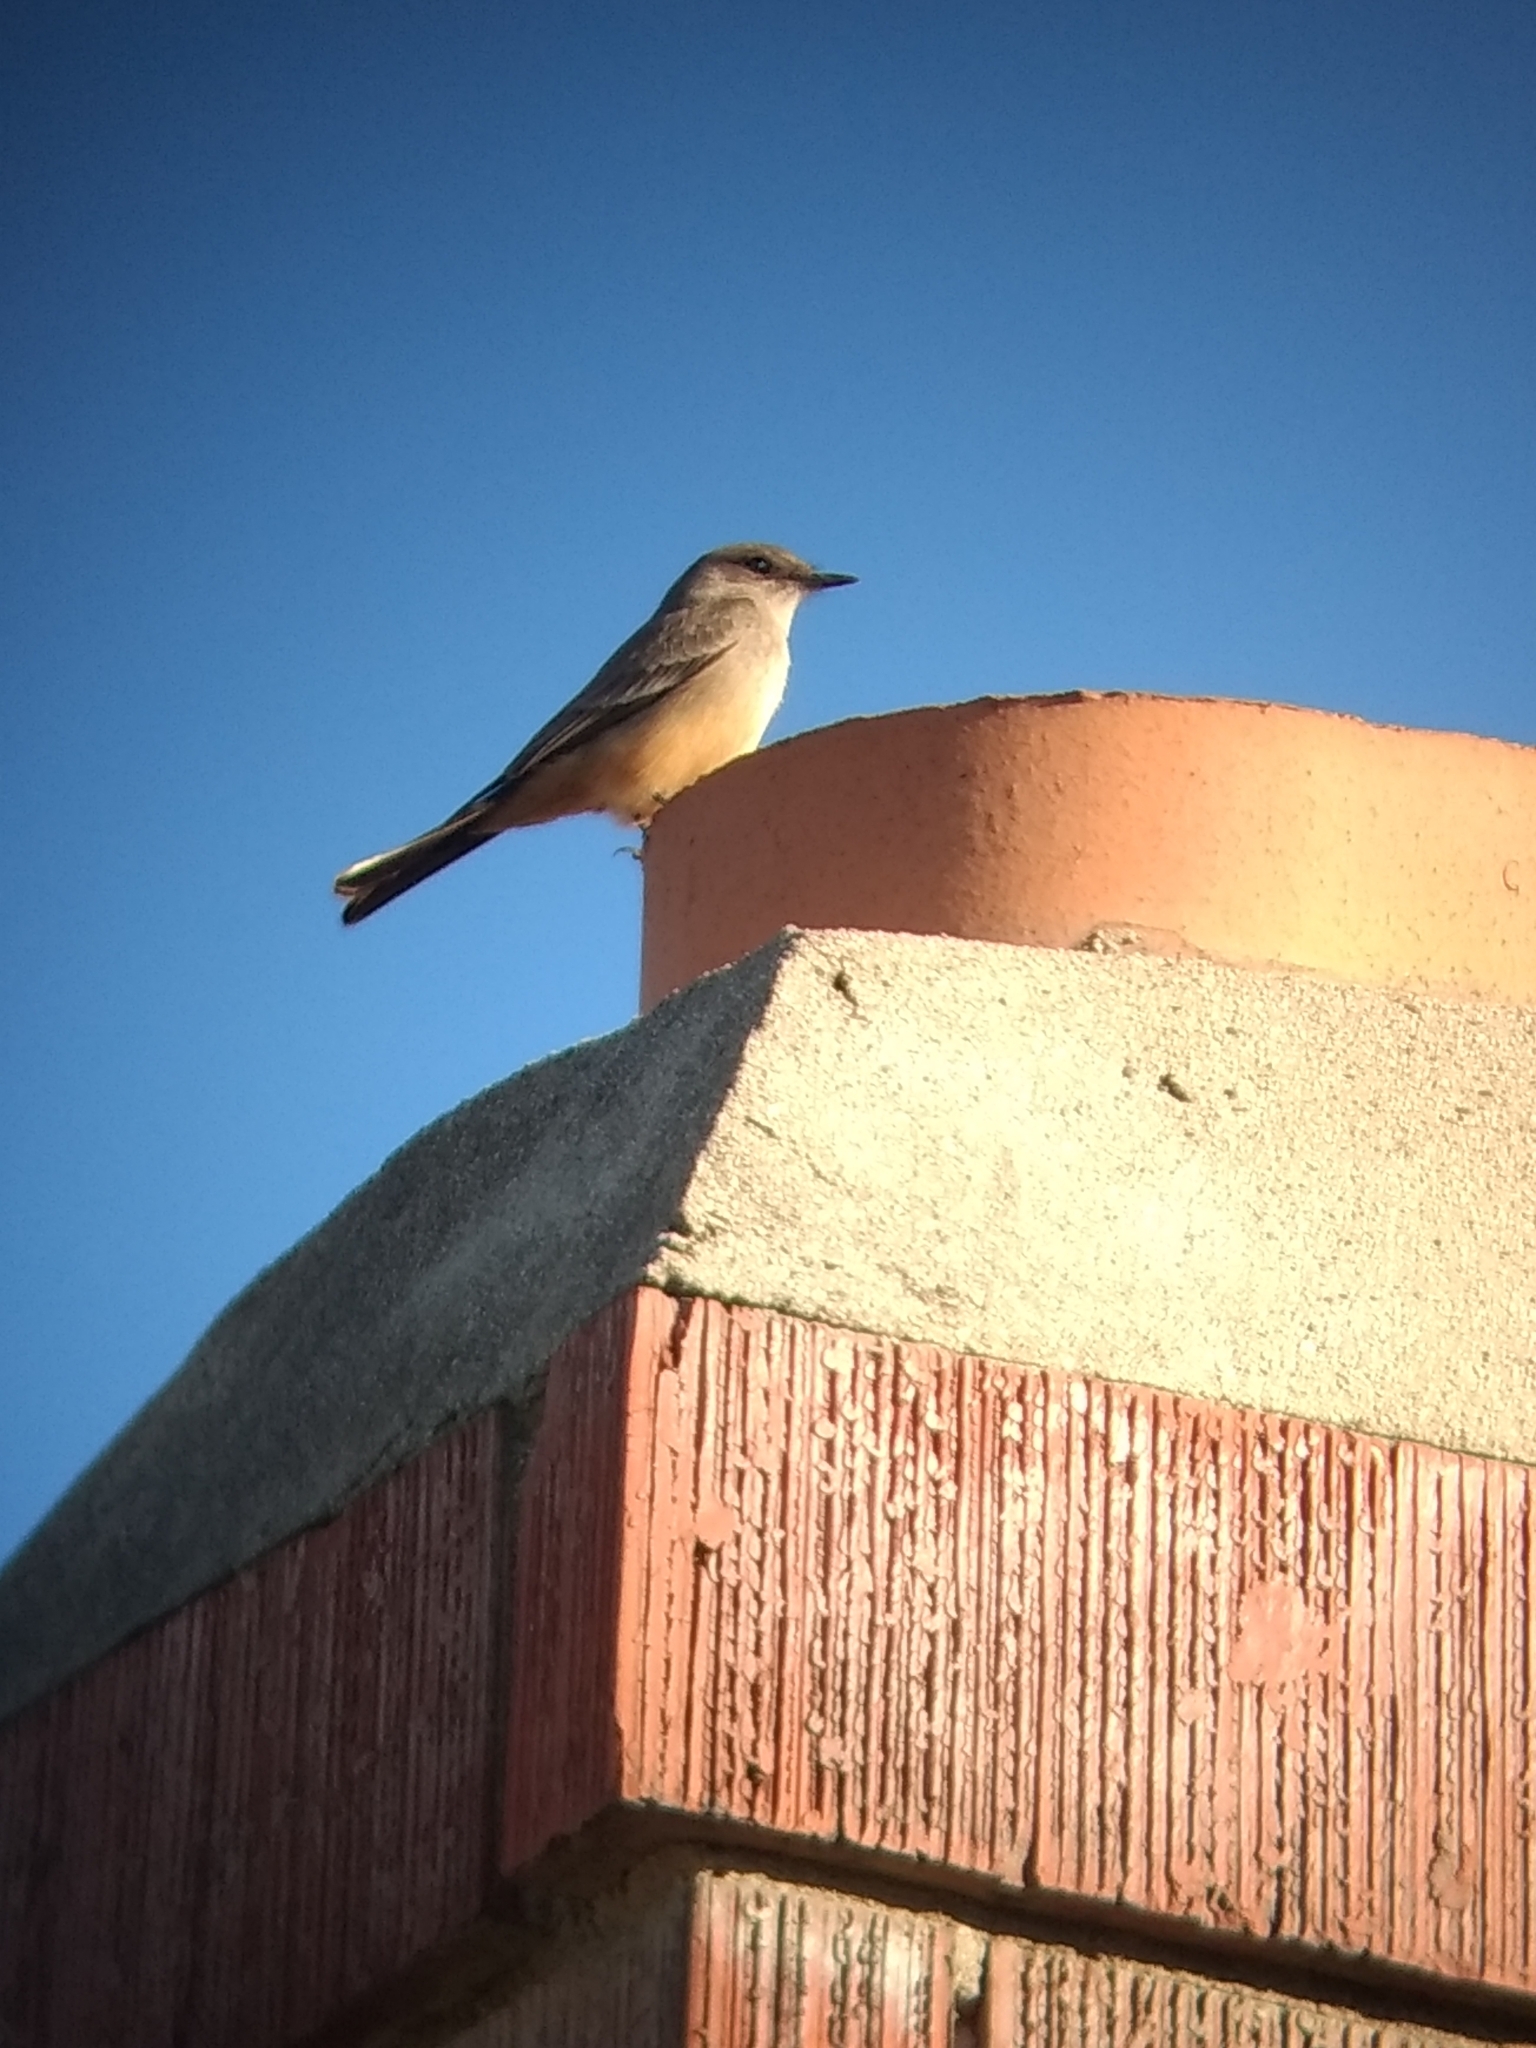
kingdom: Animalia
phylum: Chordata
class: Aves
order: Passeriformes
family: Tyrannidae
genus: Sayornis
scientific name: Sayornis saya
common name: Say's phoebe
